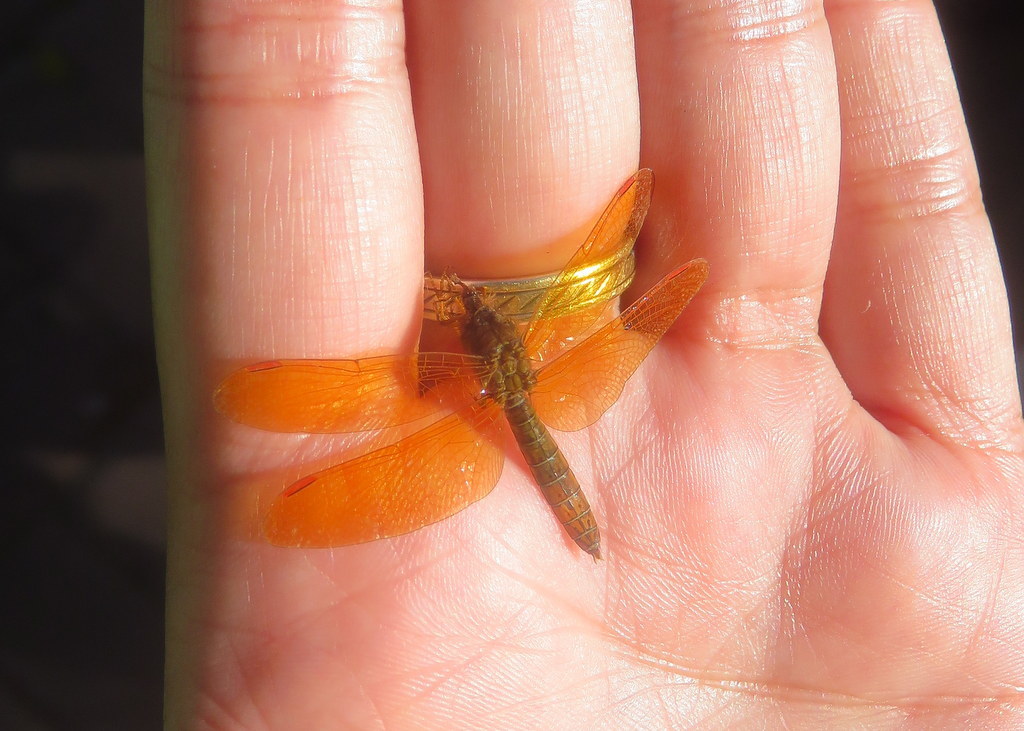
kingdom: Animalia
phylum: Arthropoda
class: Insecta
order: Odonata
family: Libellulidae
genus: Perithemis
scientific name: Perithemis tenera
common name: Eastern amberwing
